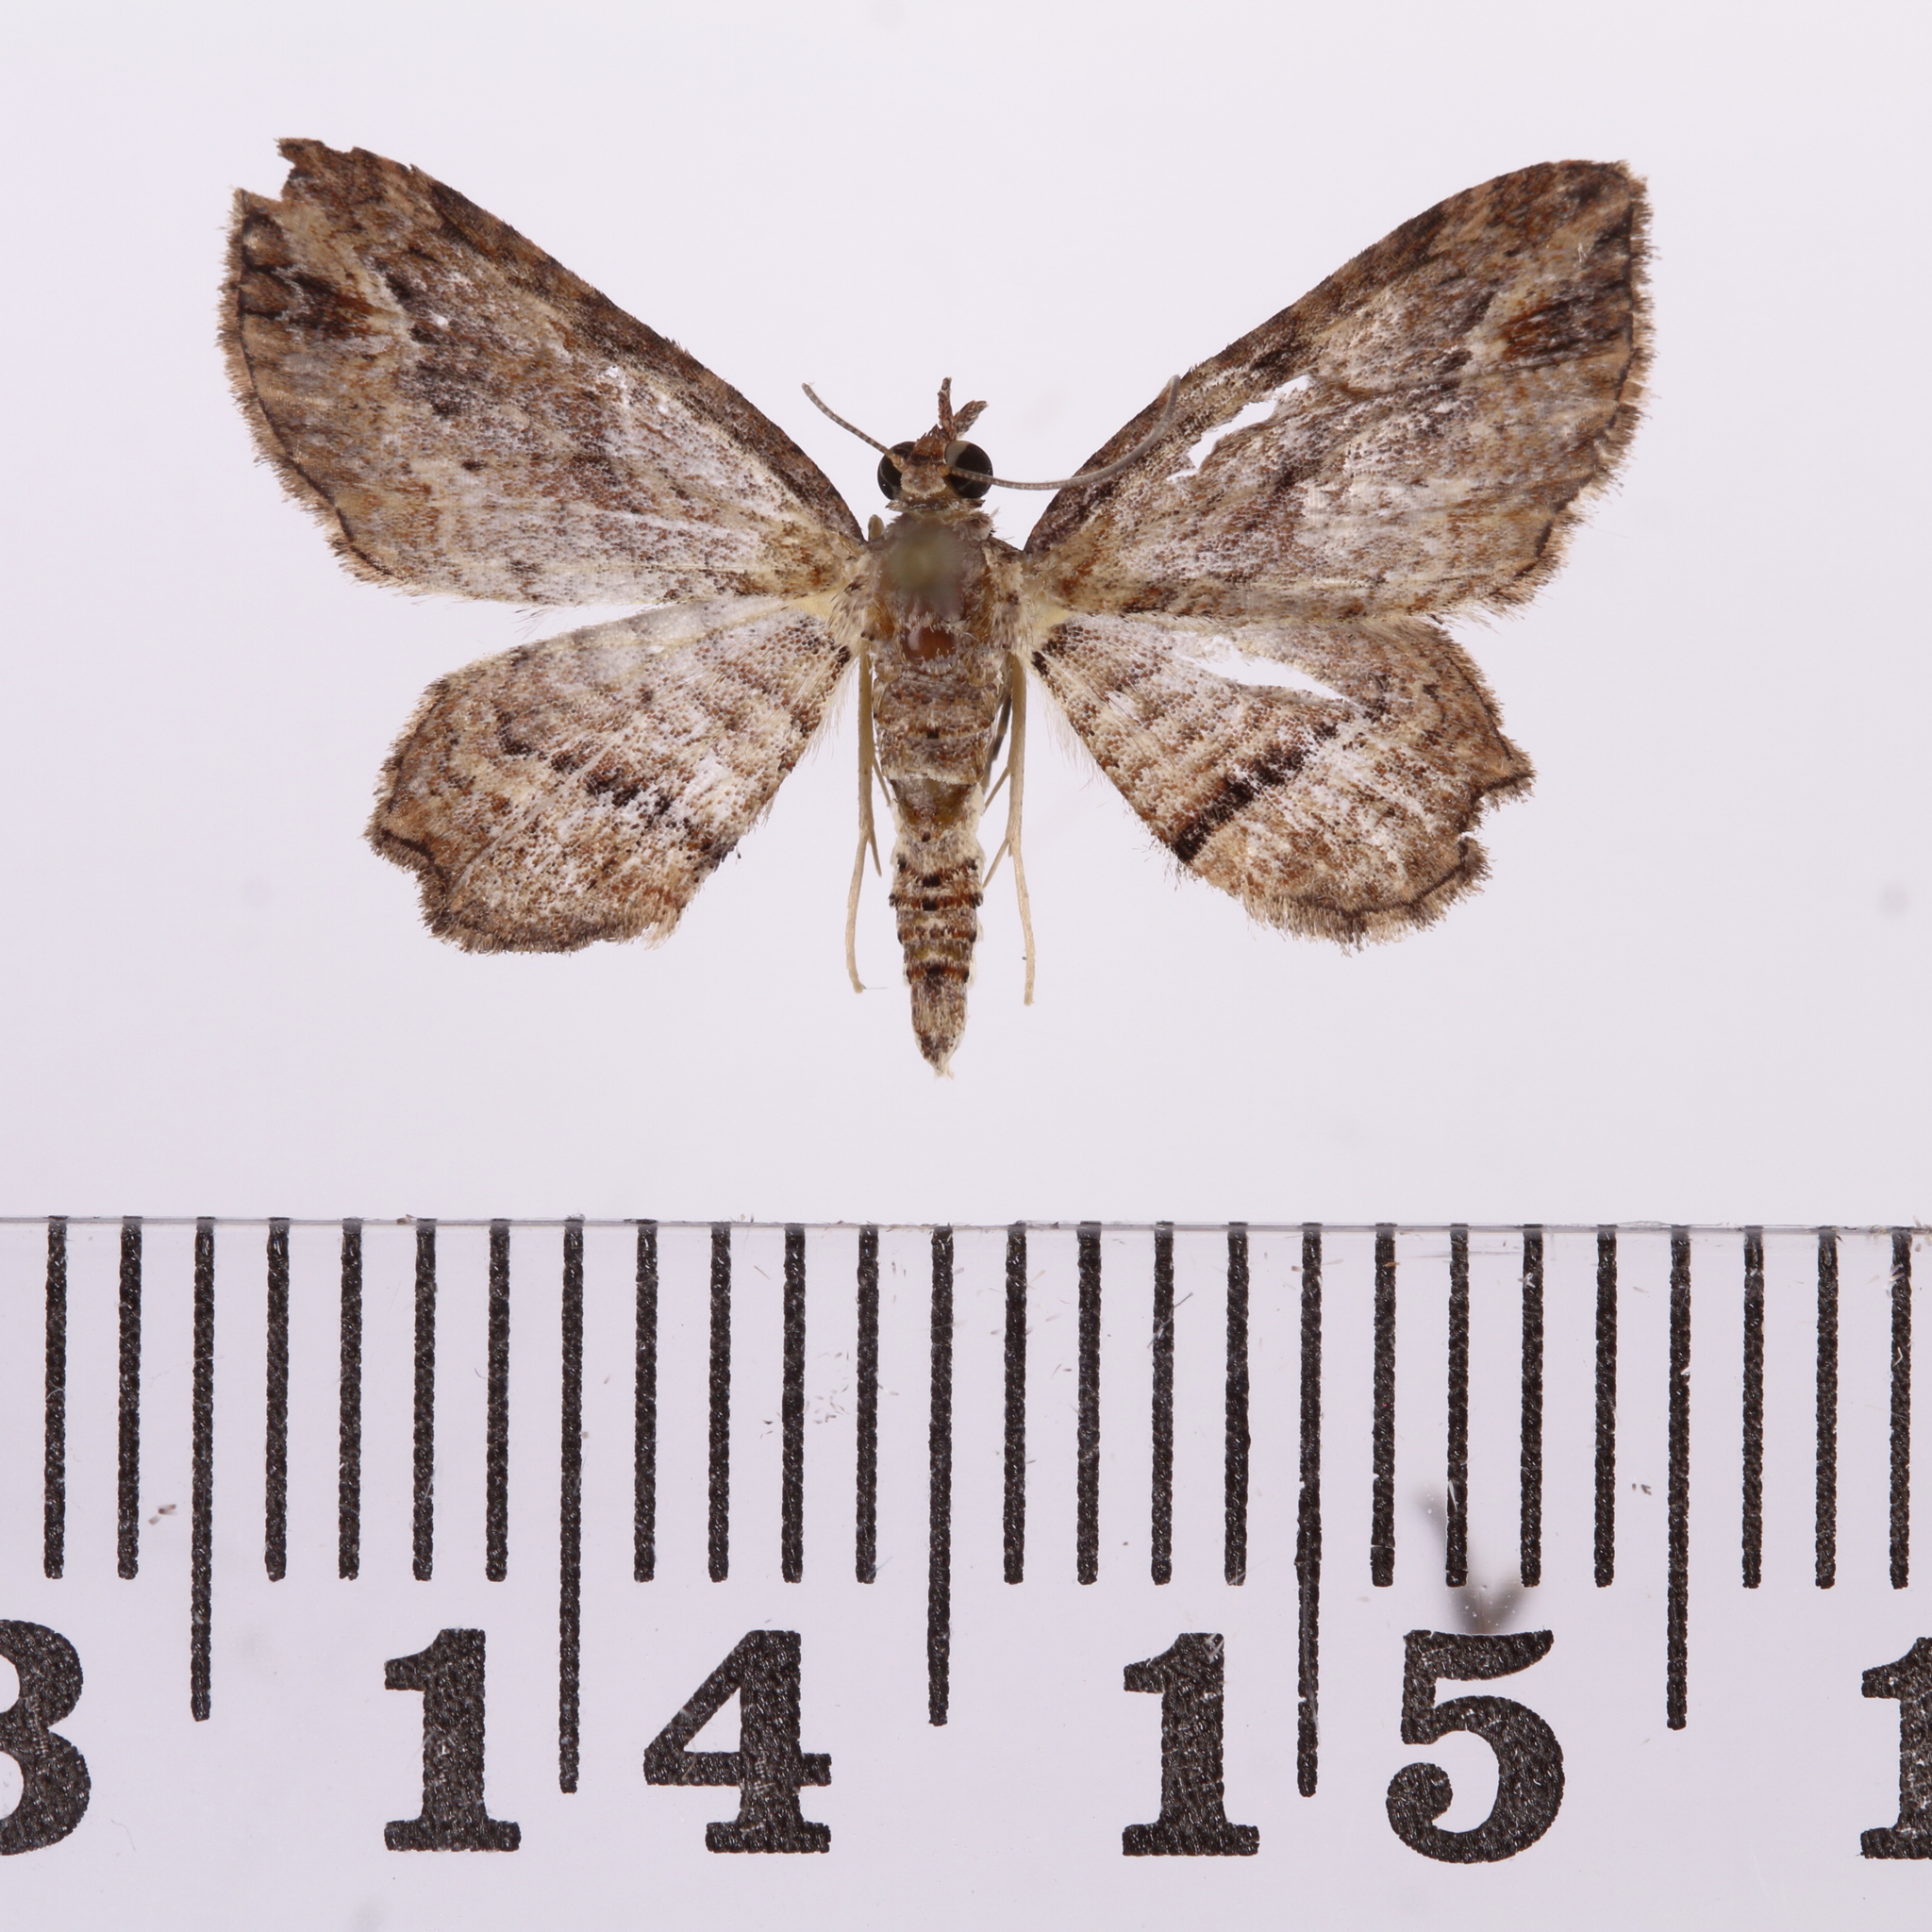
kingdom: Animalia
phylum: Arthropoda
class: Insecta
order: Lepidoptera
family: Geometridae
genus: Chloroclystis
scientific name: Chloroclystis filata
